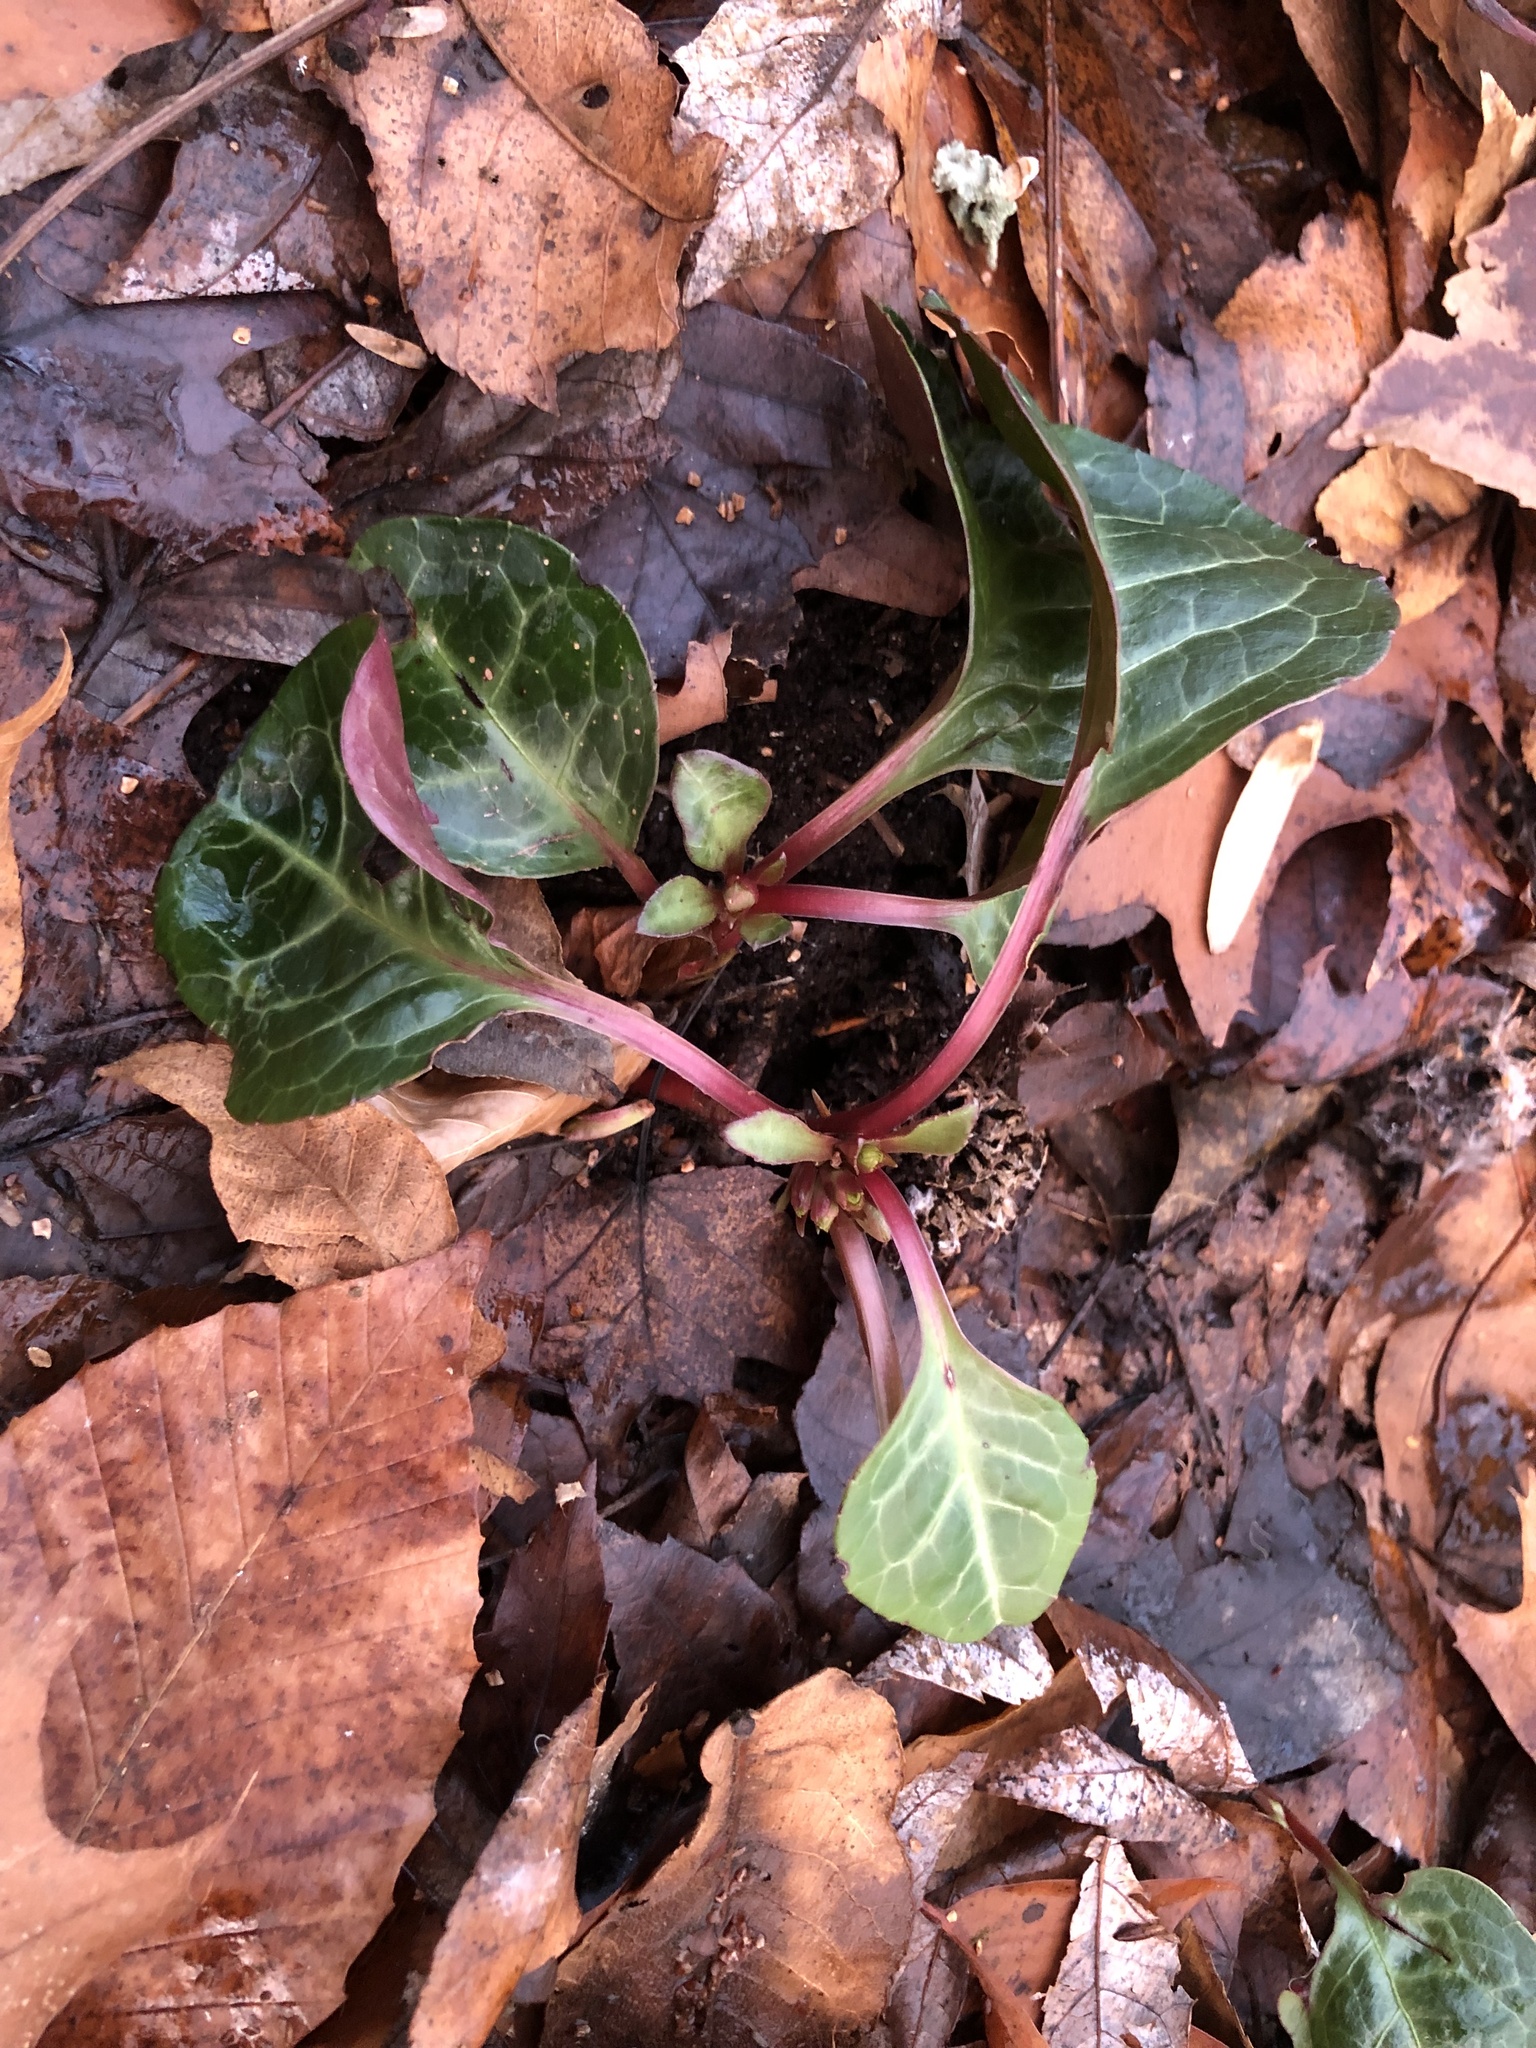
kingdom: Plantae
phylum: Tracheophyta
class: Magnoliopsida
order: Ericales
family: Ericaceae
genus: Pyrola
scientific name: Pyrola americana
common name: American wintergreen
